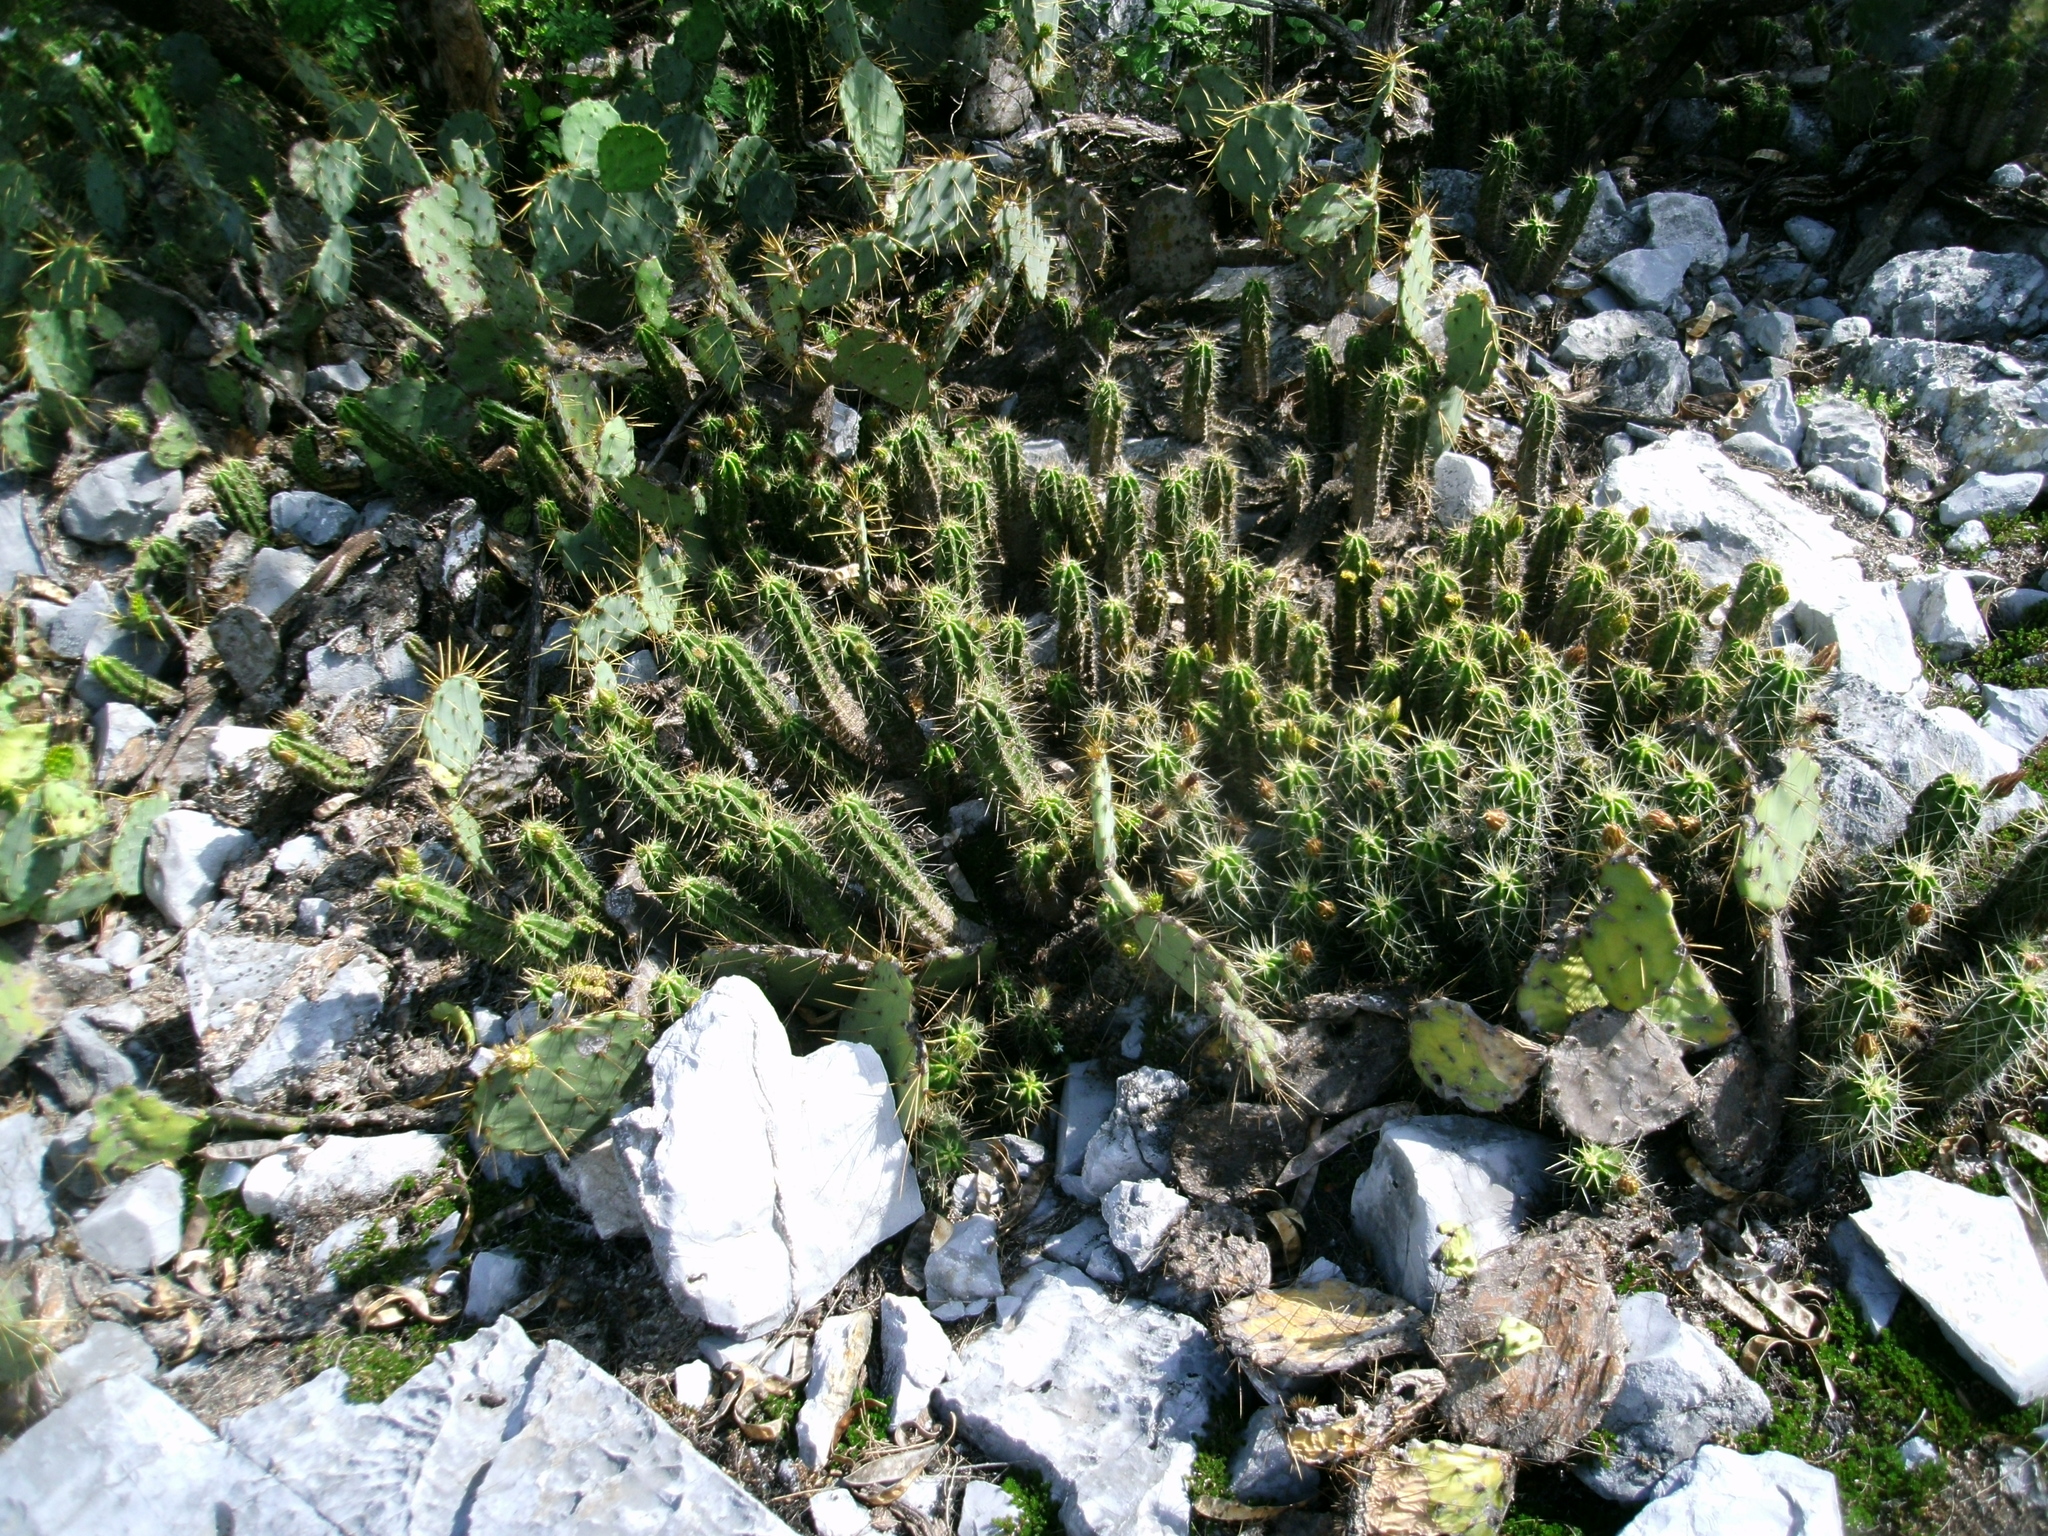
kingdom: Plantae
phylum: Tracheophyta
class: Magnoliopsida
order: Caryophyllales
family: Cactaceae
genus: Echinocereus
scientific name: Echinocereus viereckii
